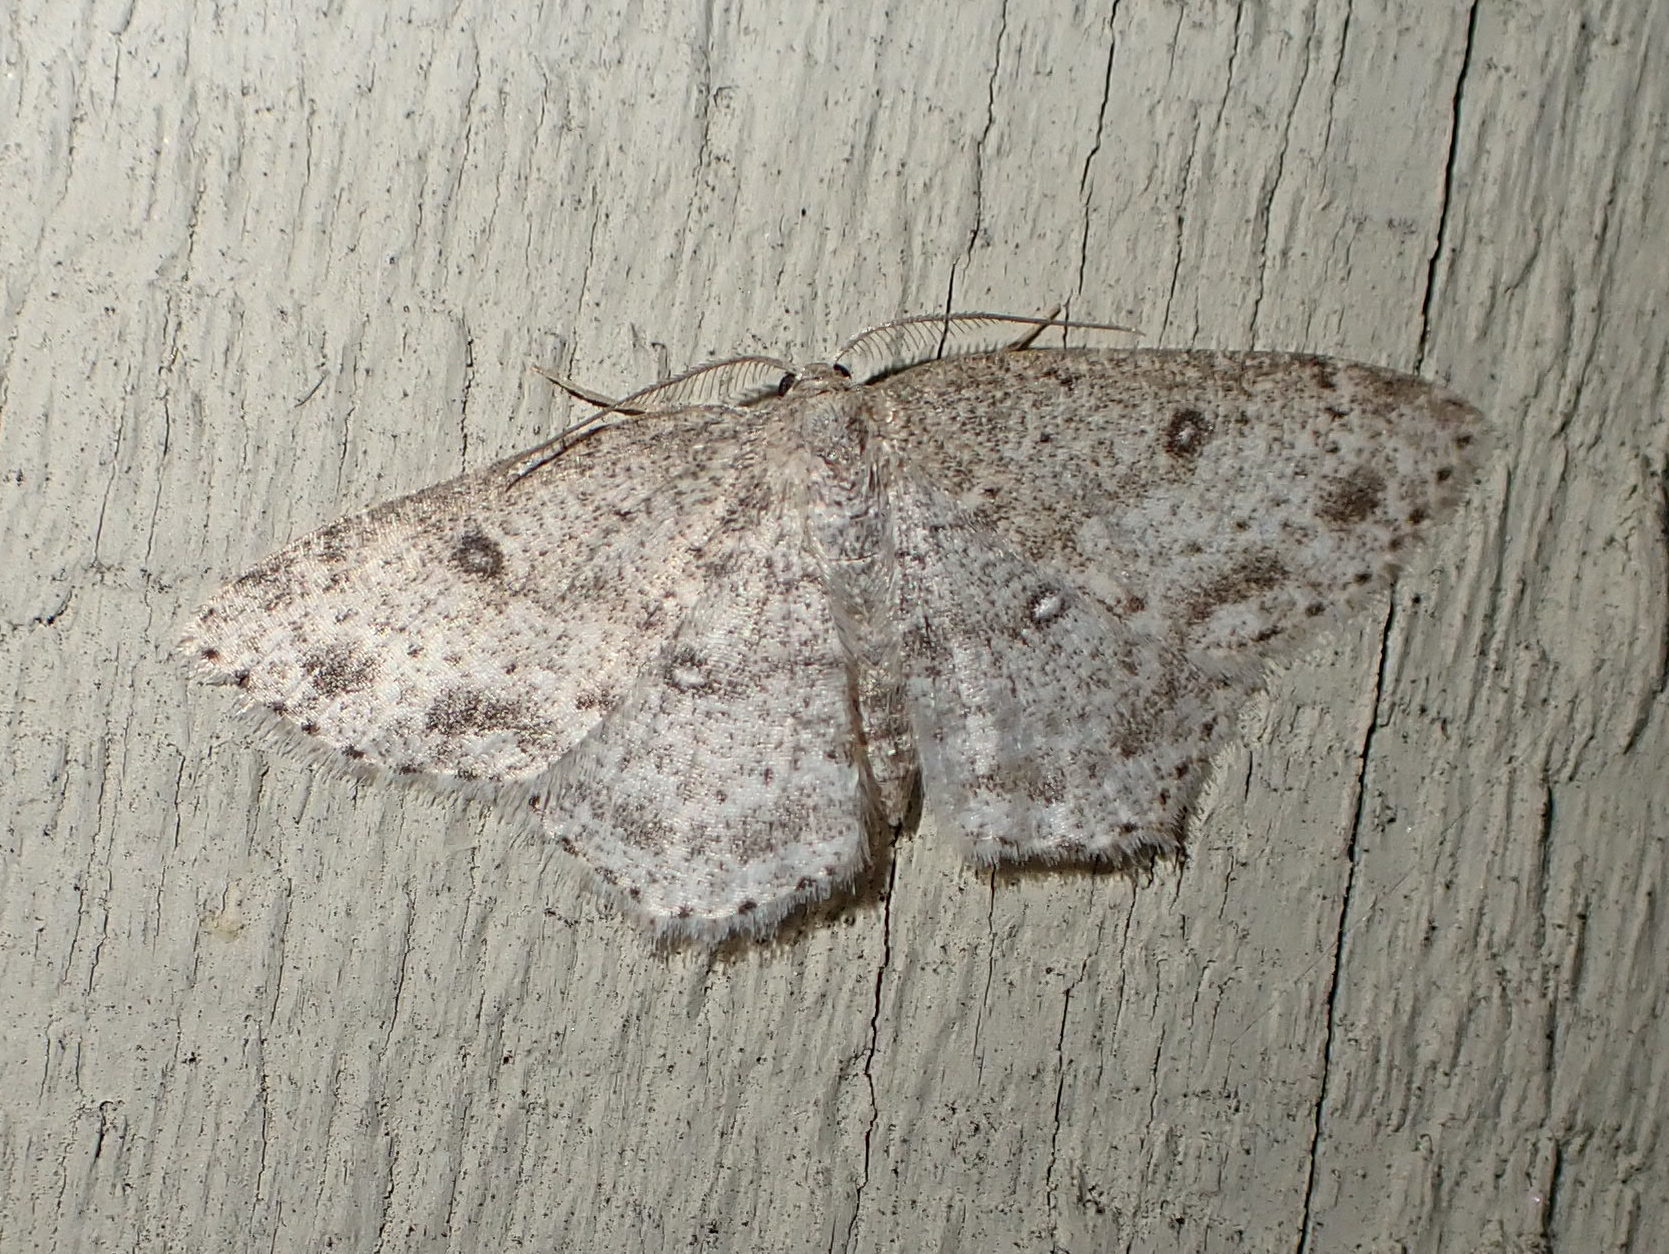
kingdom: Animalia
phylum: Arthropoda
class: Insecta
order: Lepidoptera
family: Geometridae
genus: Cyclophora
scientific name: Cyclophora pendulinaria
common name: Sweet fern geometer
